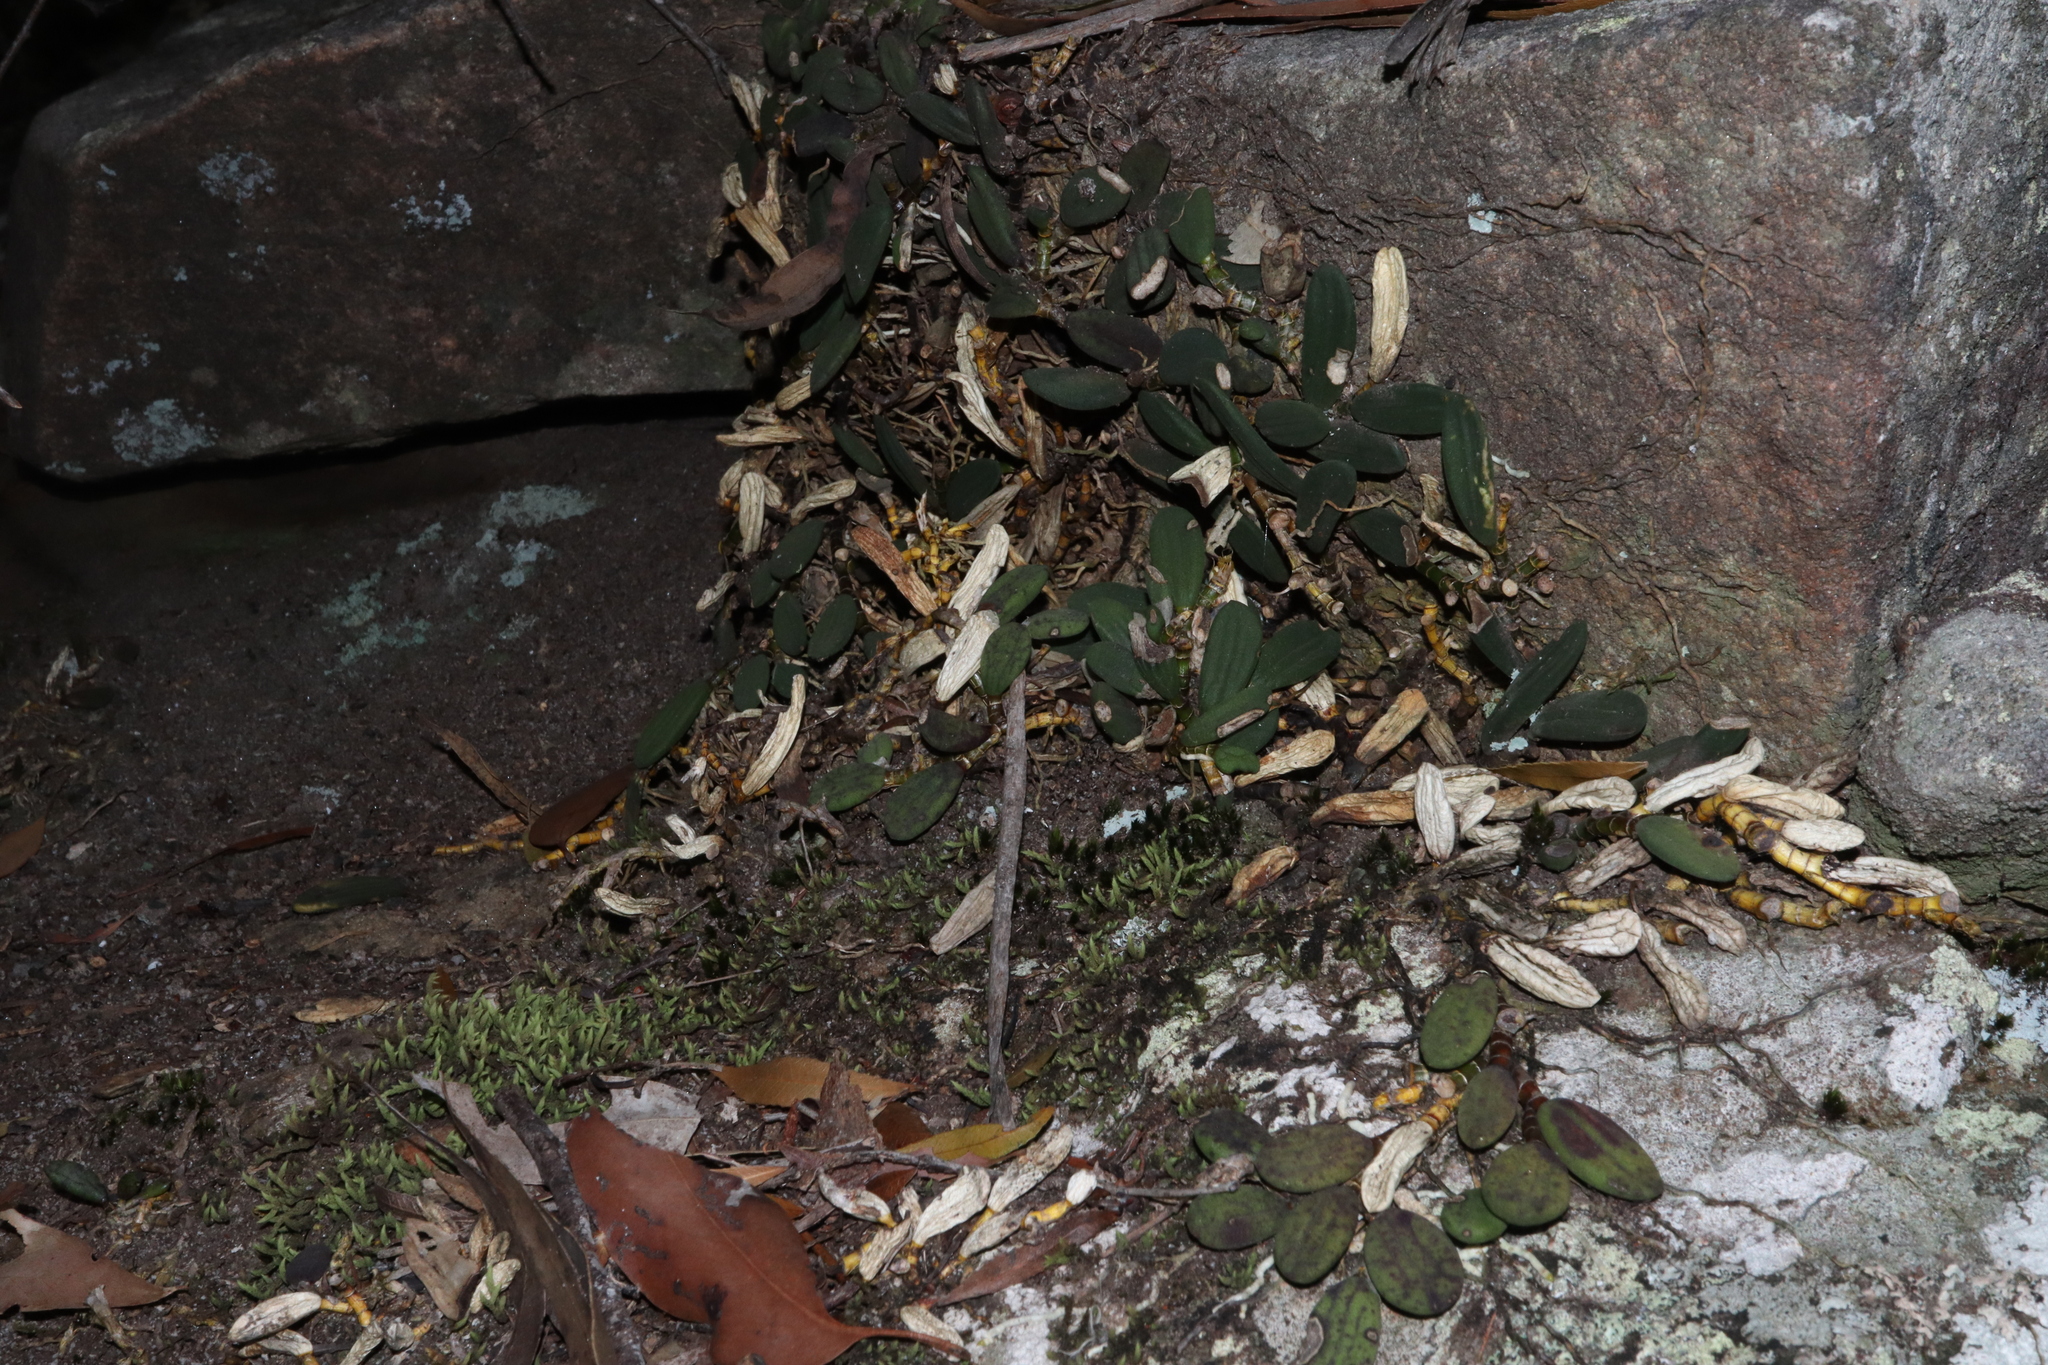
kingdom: Plantae
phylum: Tracheophyta
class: Liliopsida
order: Asparagales
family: Orchidaceae
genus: Dendrobium
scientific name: Dendrobium linguiforme
